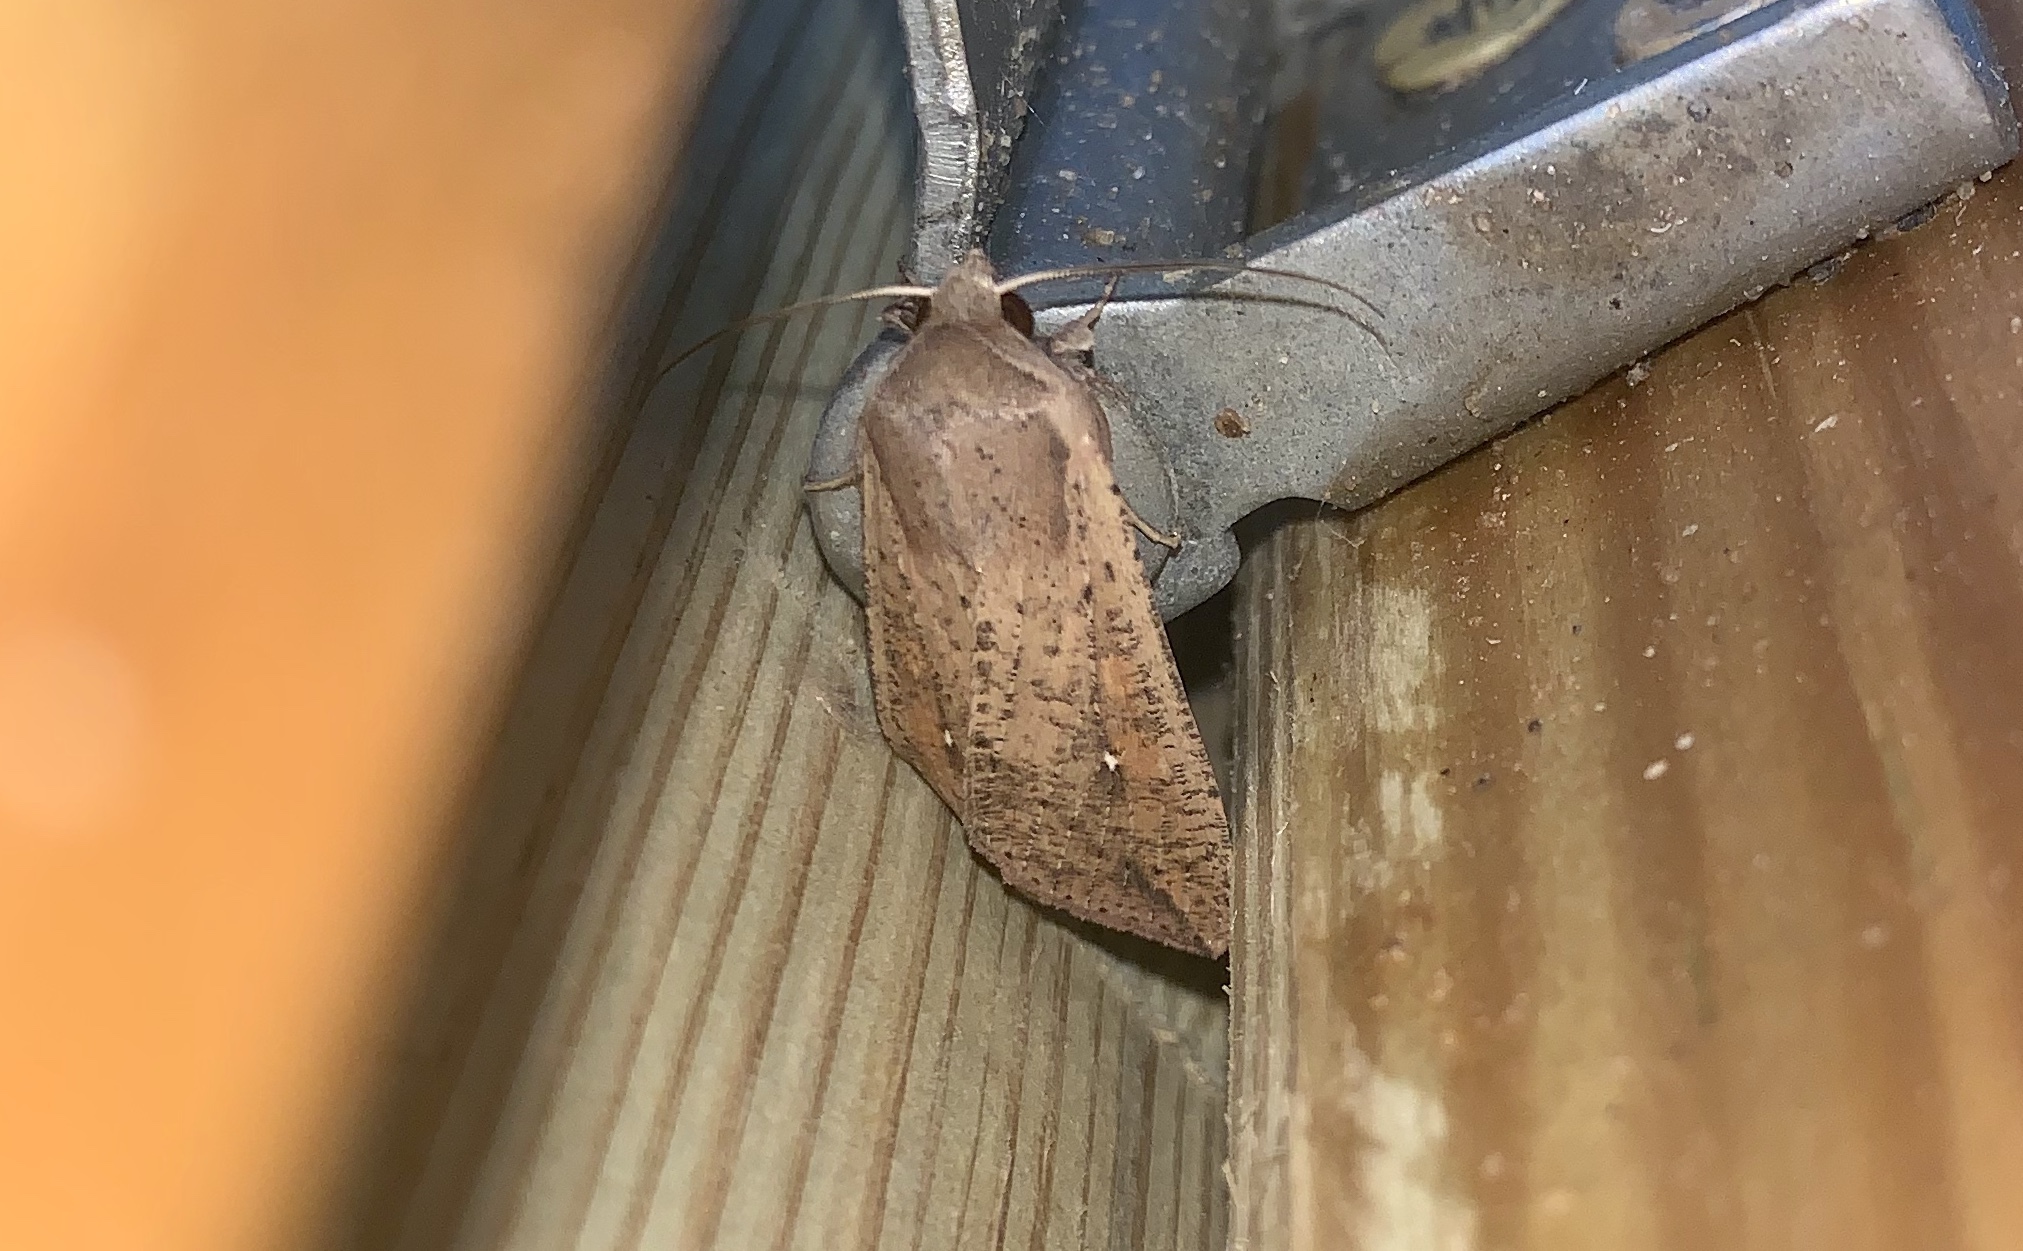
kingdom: Animalia
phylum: Arthropoda
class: Insecta
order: Lepidoptera
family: Noctuidae
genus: Mythimna
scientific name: Mythimna unipuncta
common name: White-speck
